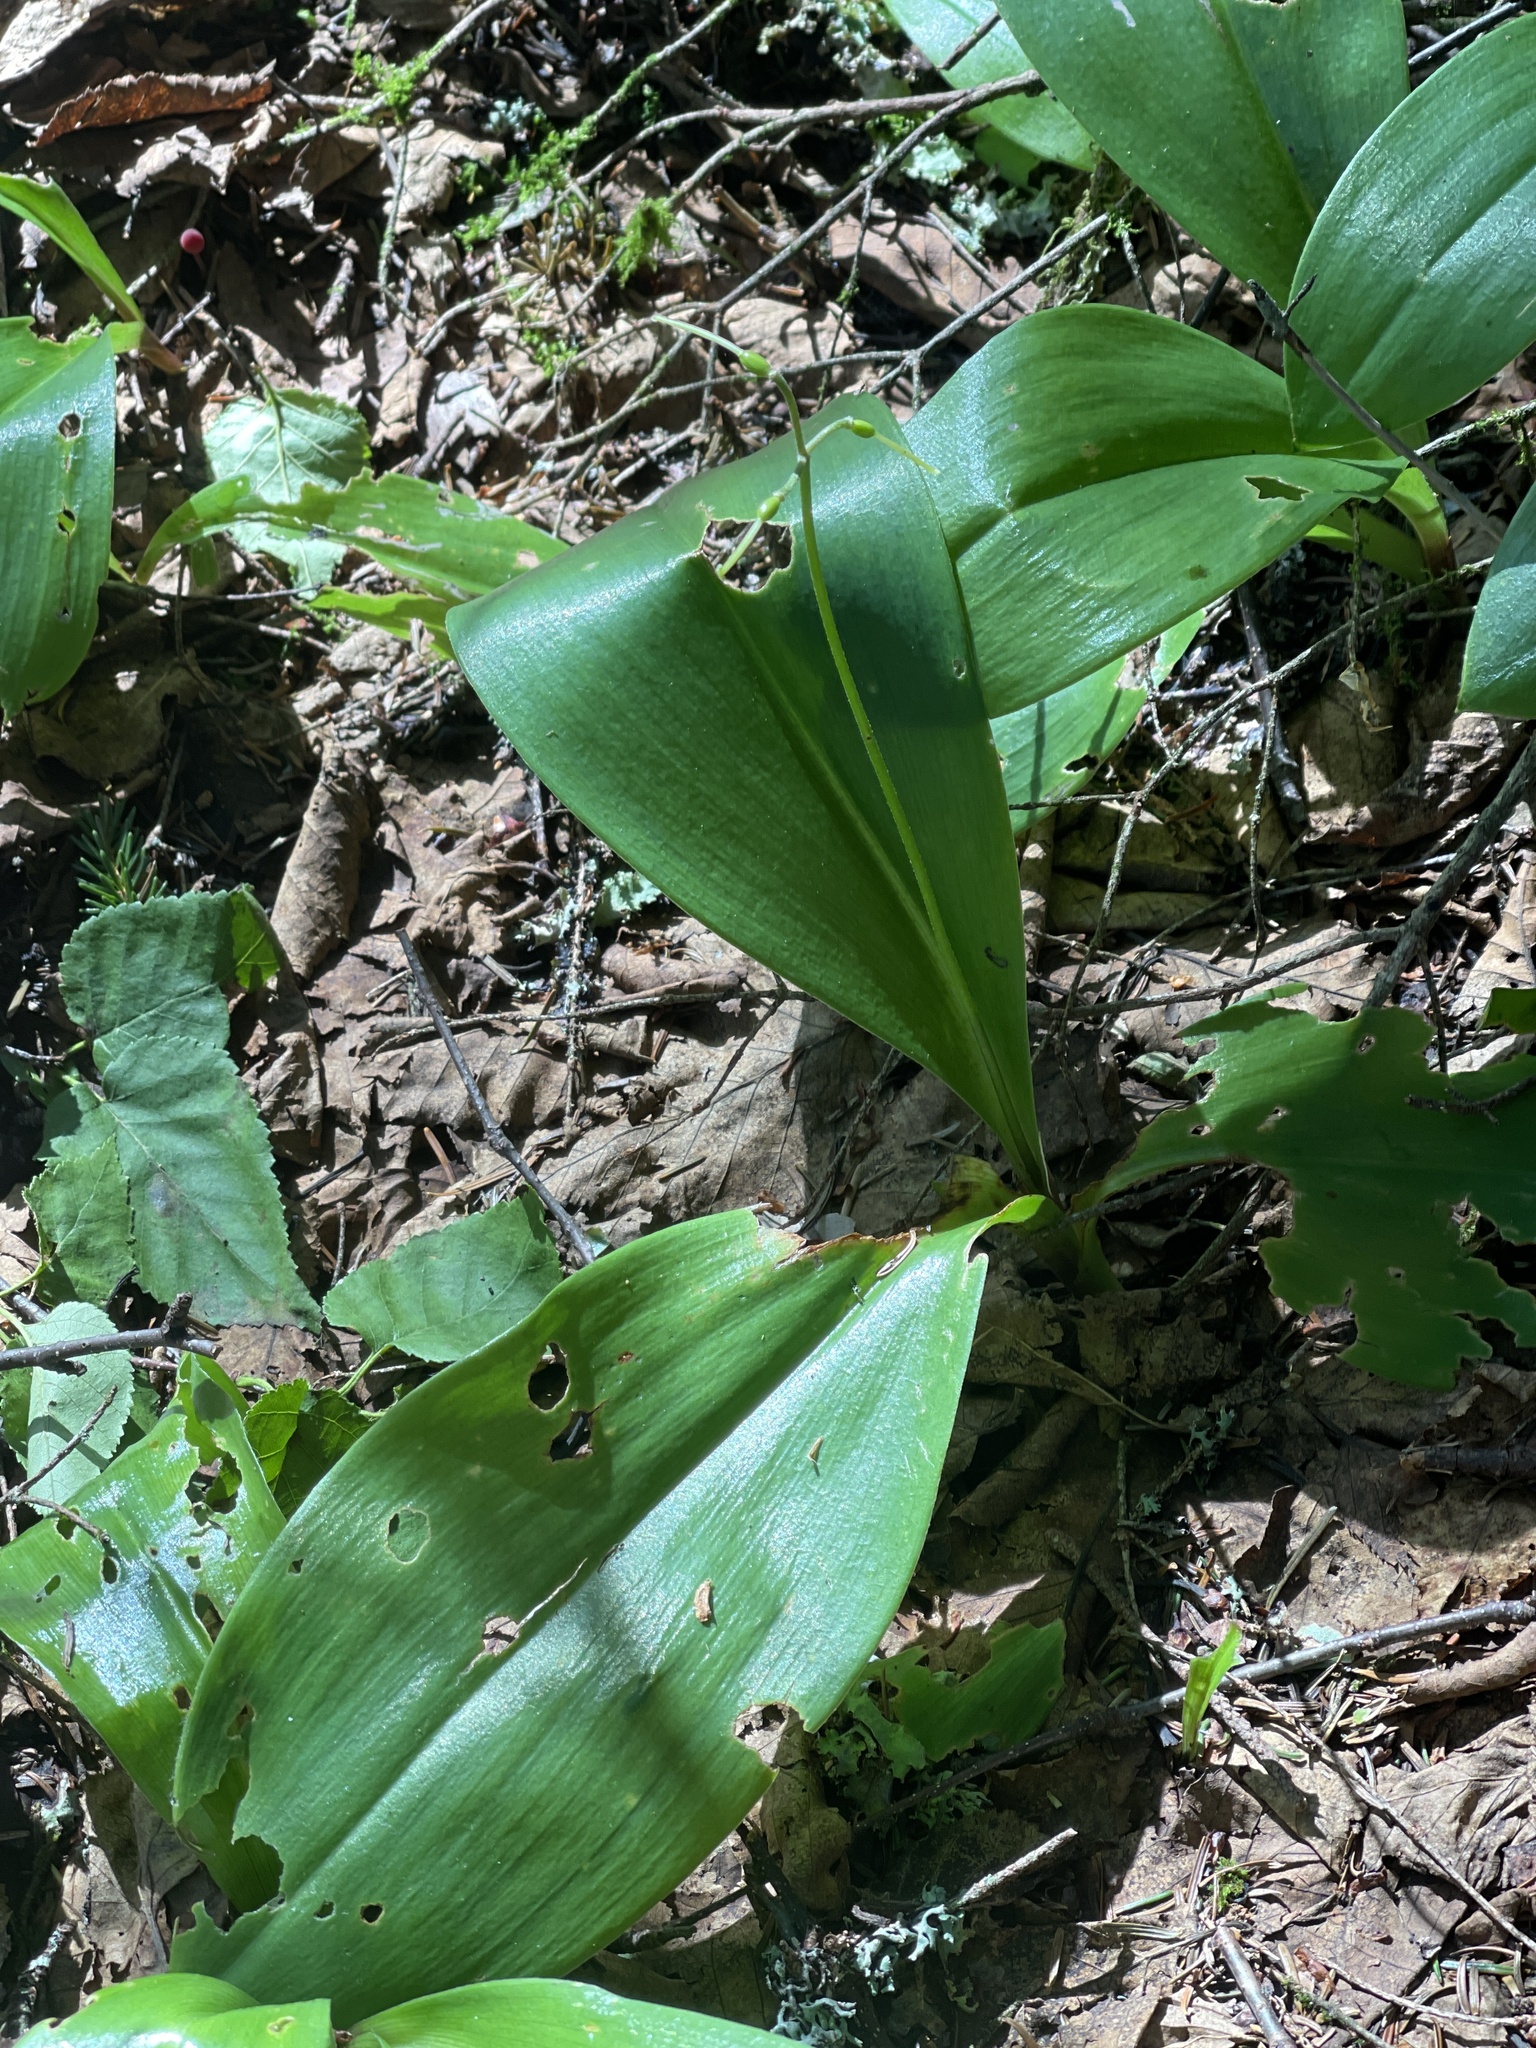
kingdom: Plantae
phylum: Tracheophyta
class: Liliopsida
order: Liliales
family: Liliaceae
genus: Clintonia
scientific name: Clintonia borealis
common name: Yellow clintonia
